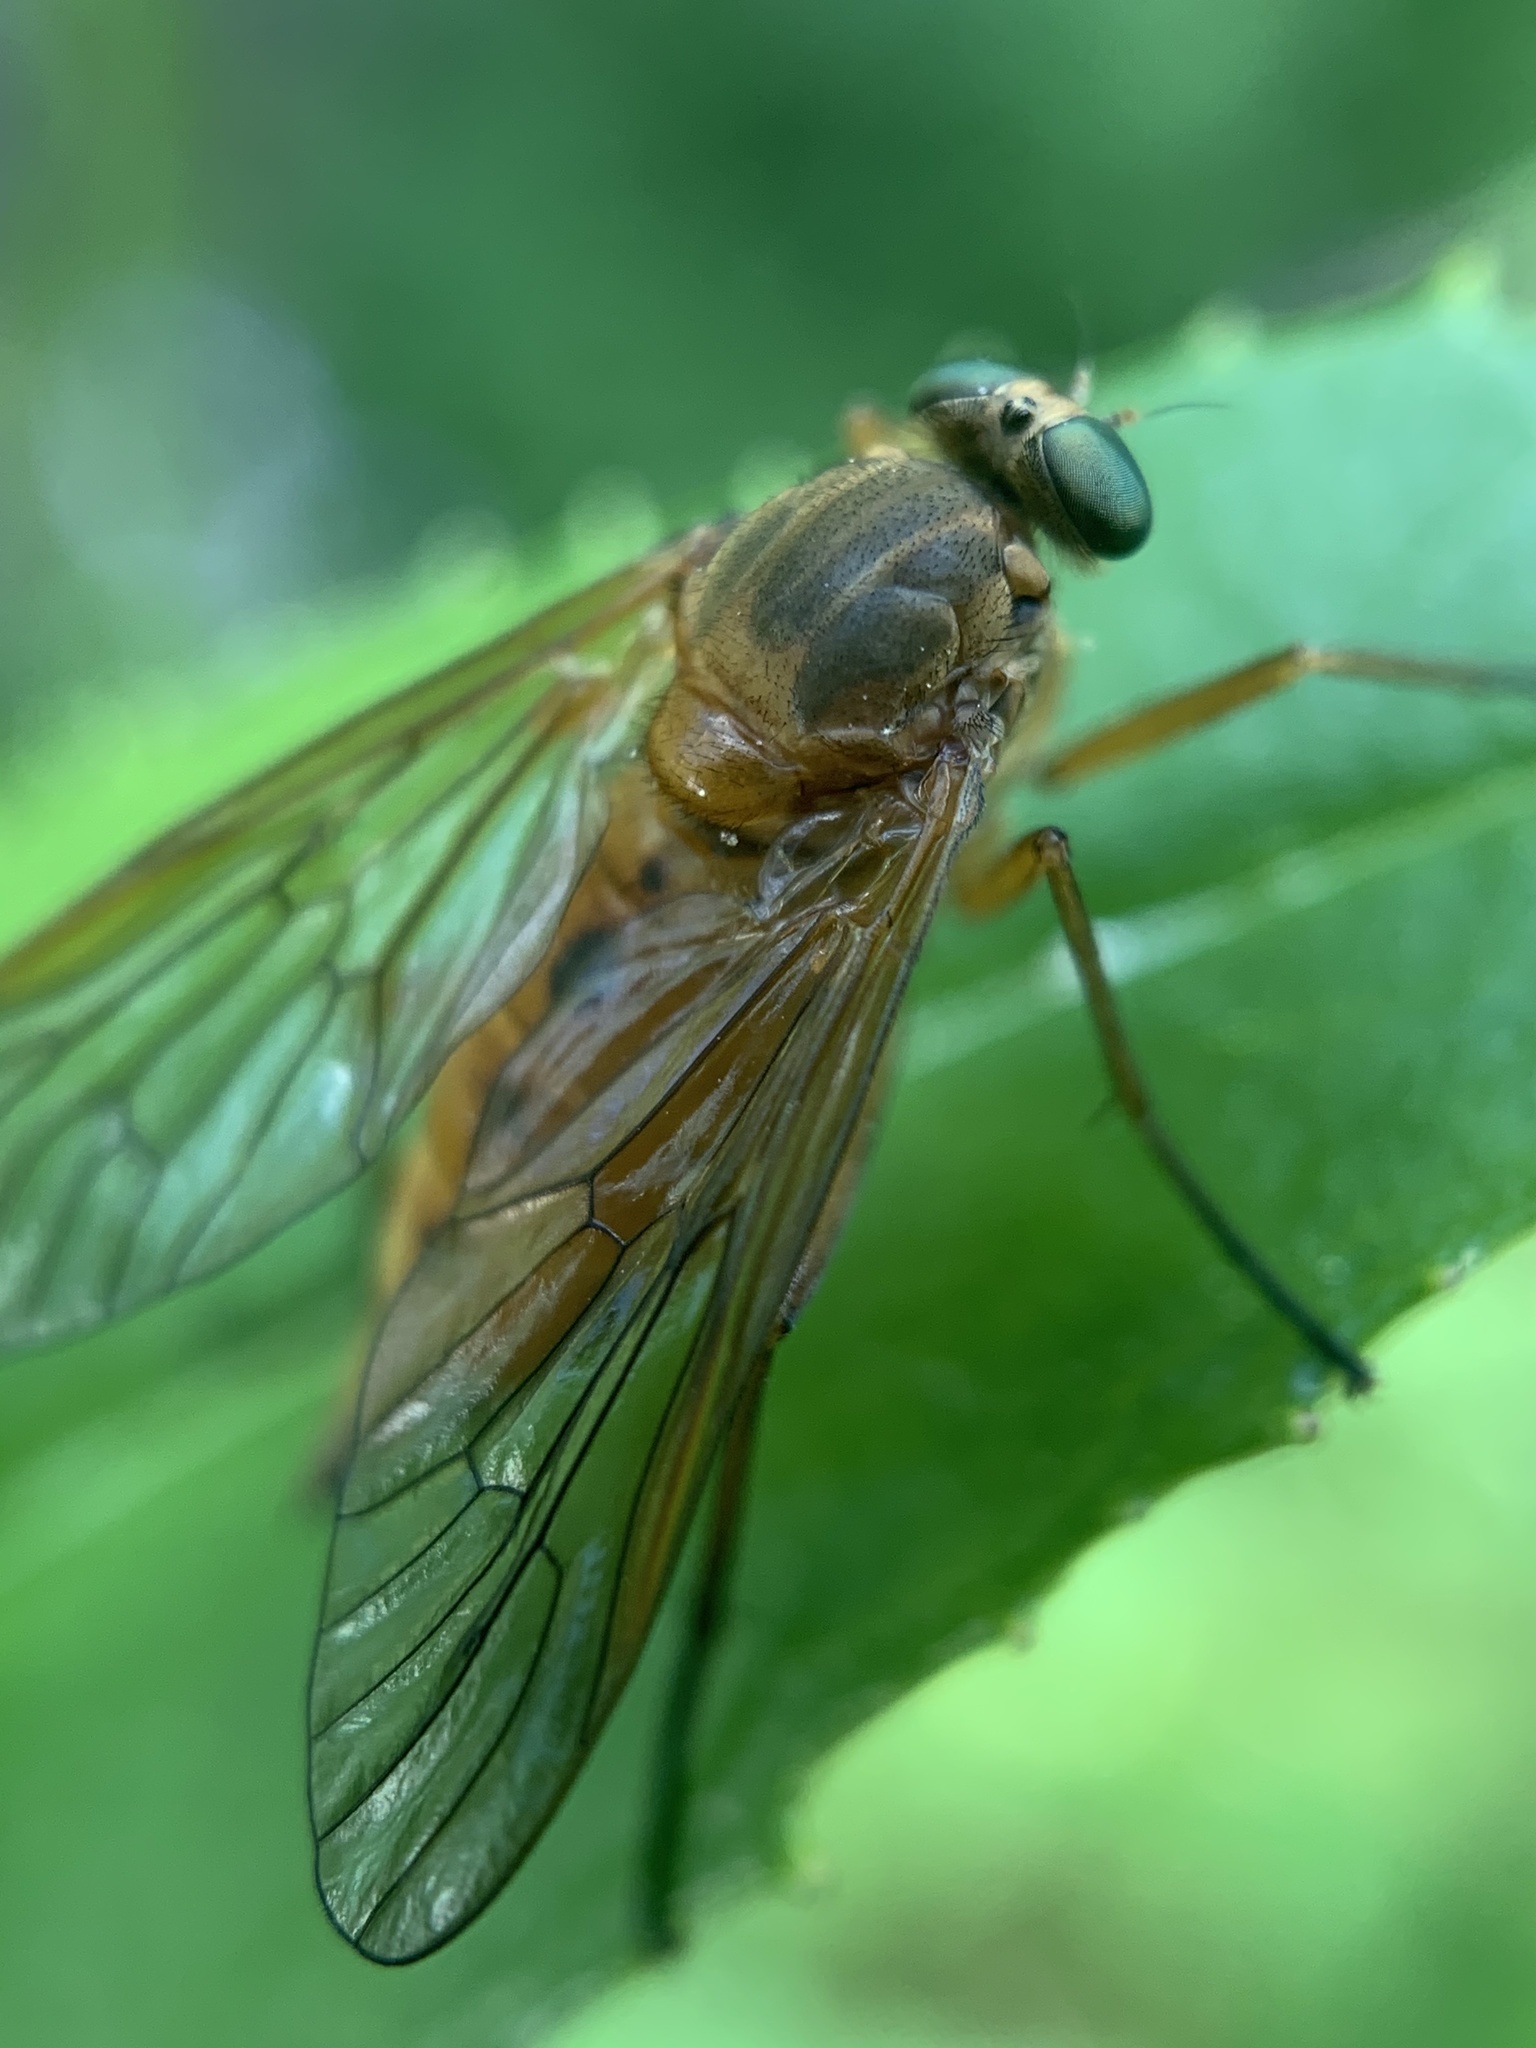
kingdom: Animalia
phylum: Arthropoda
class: Insecta
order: Diptera
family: Rhagionidae
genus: Rhagio
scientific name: Rhagio tringaria
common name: Marsh snipefly
